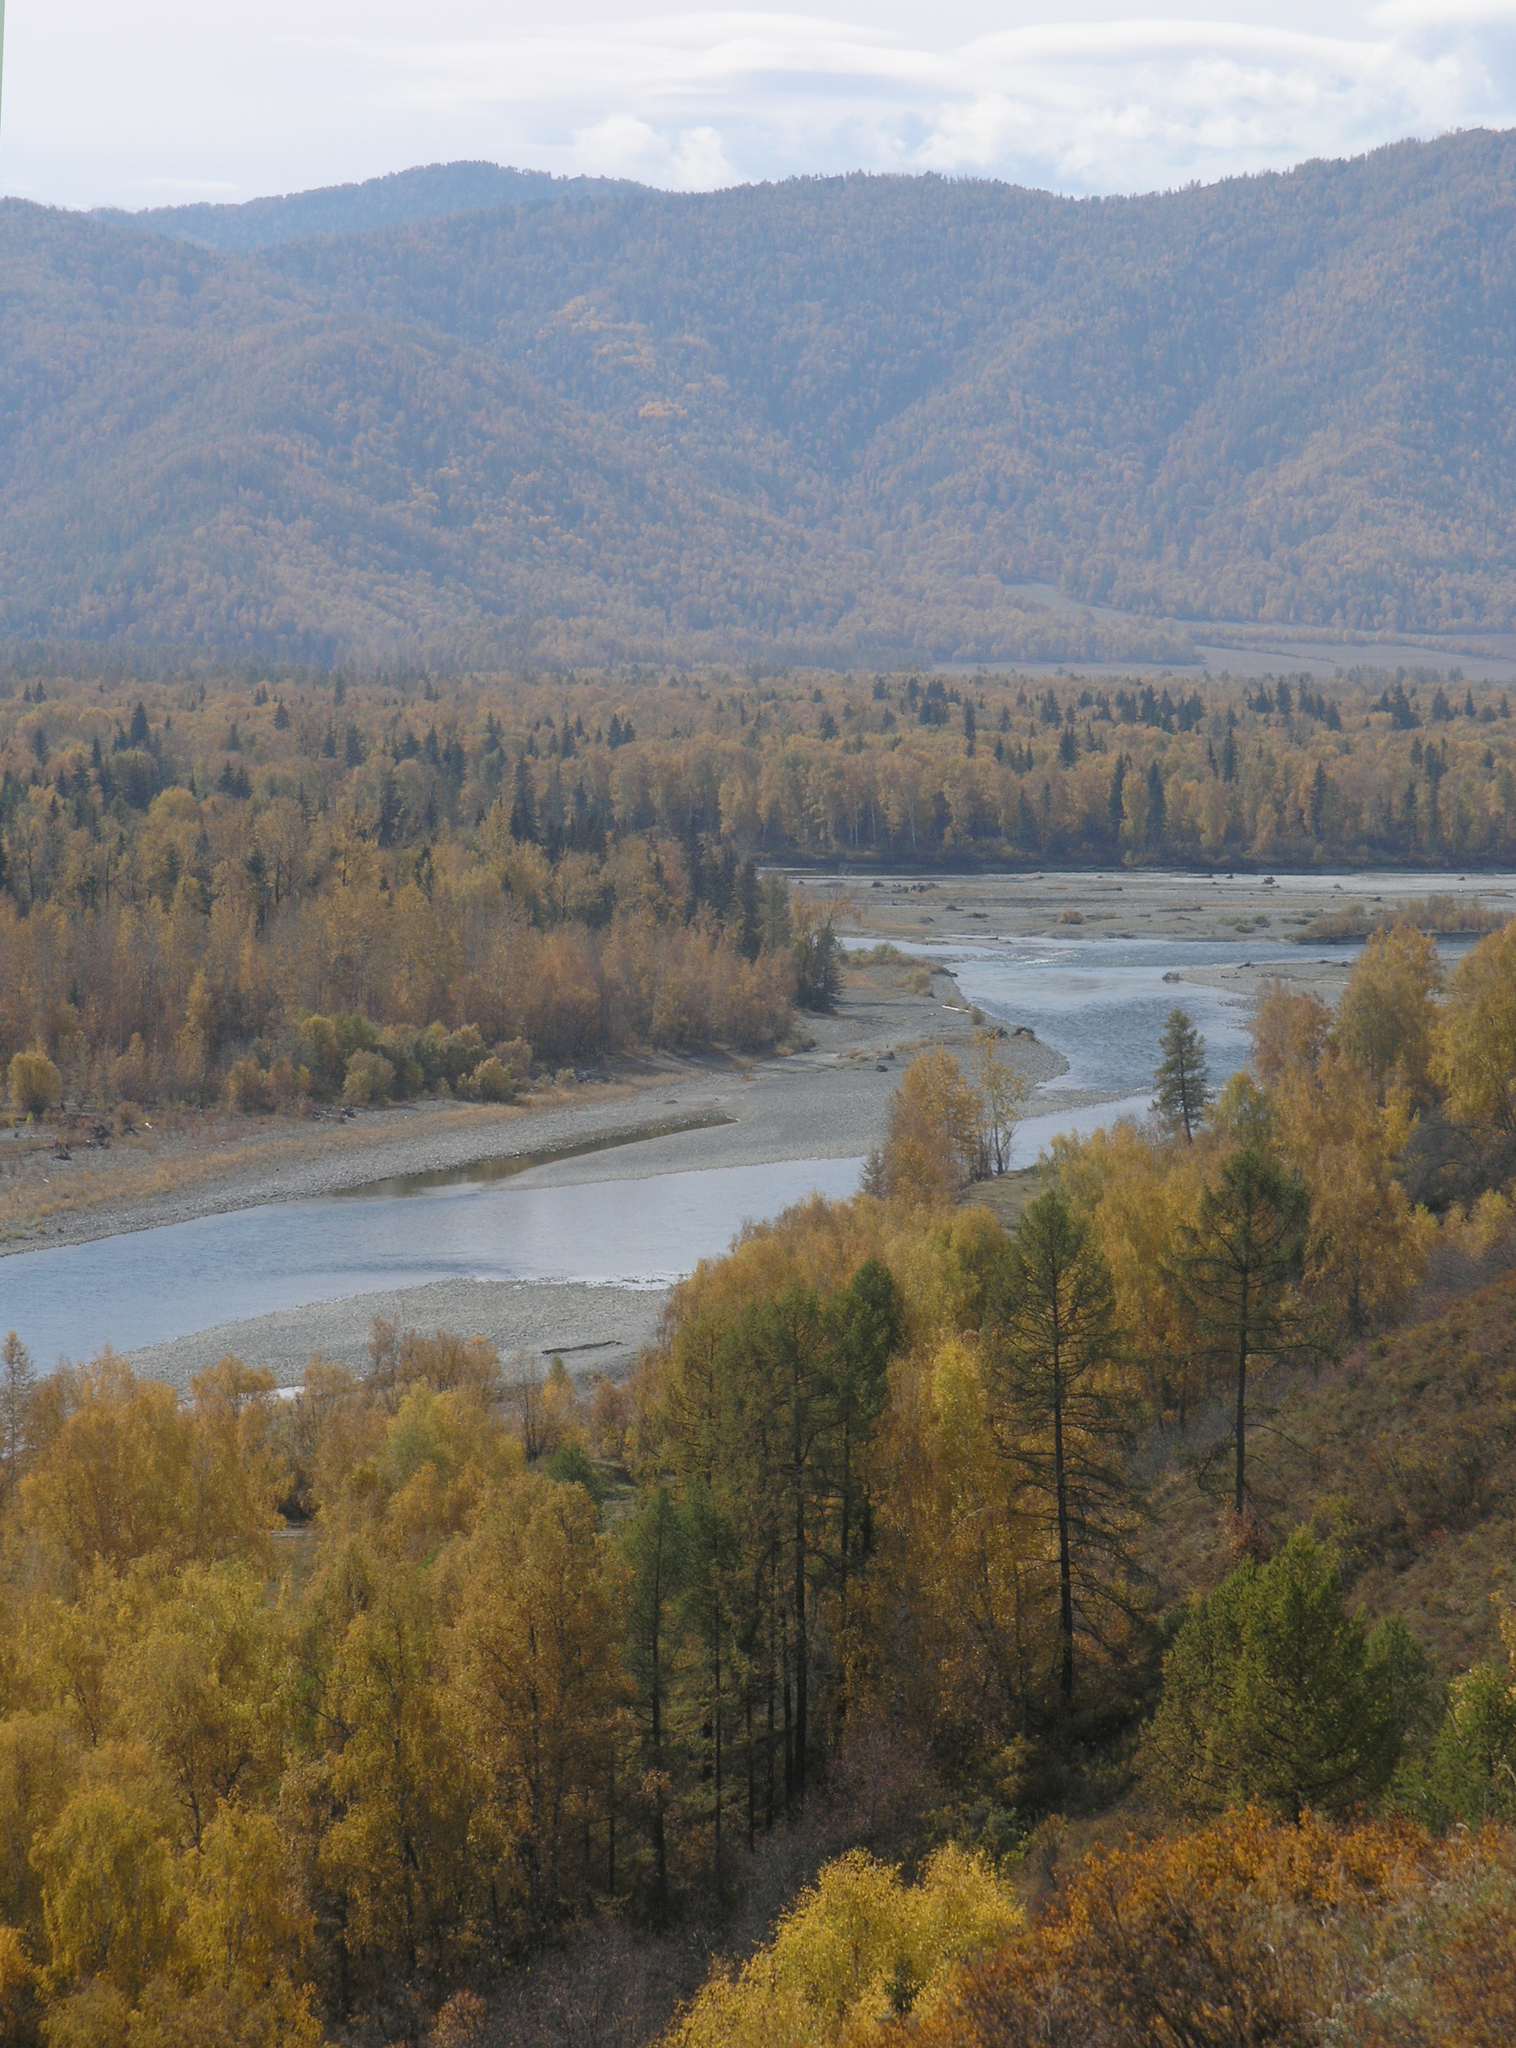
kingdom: Plantae
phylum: Tracheophyta
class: Pinopsida
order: Pinales
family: Pinaceae
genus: Larix
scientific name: Larix sibirica
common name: Siberian larch
